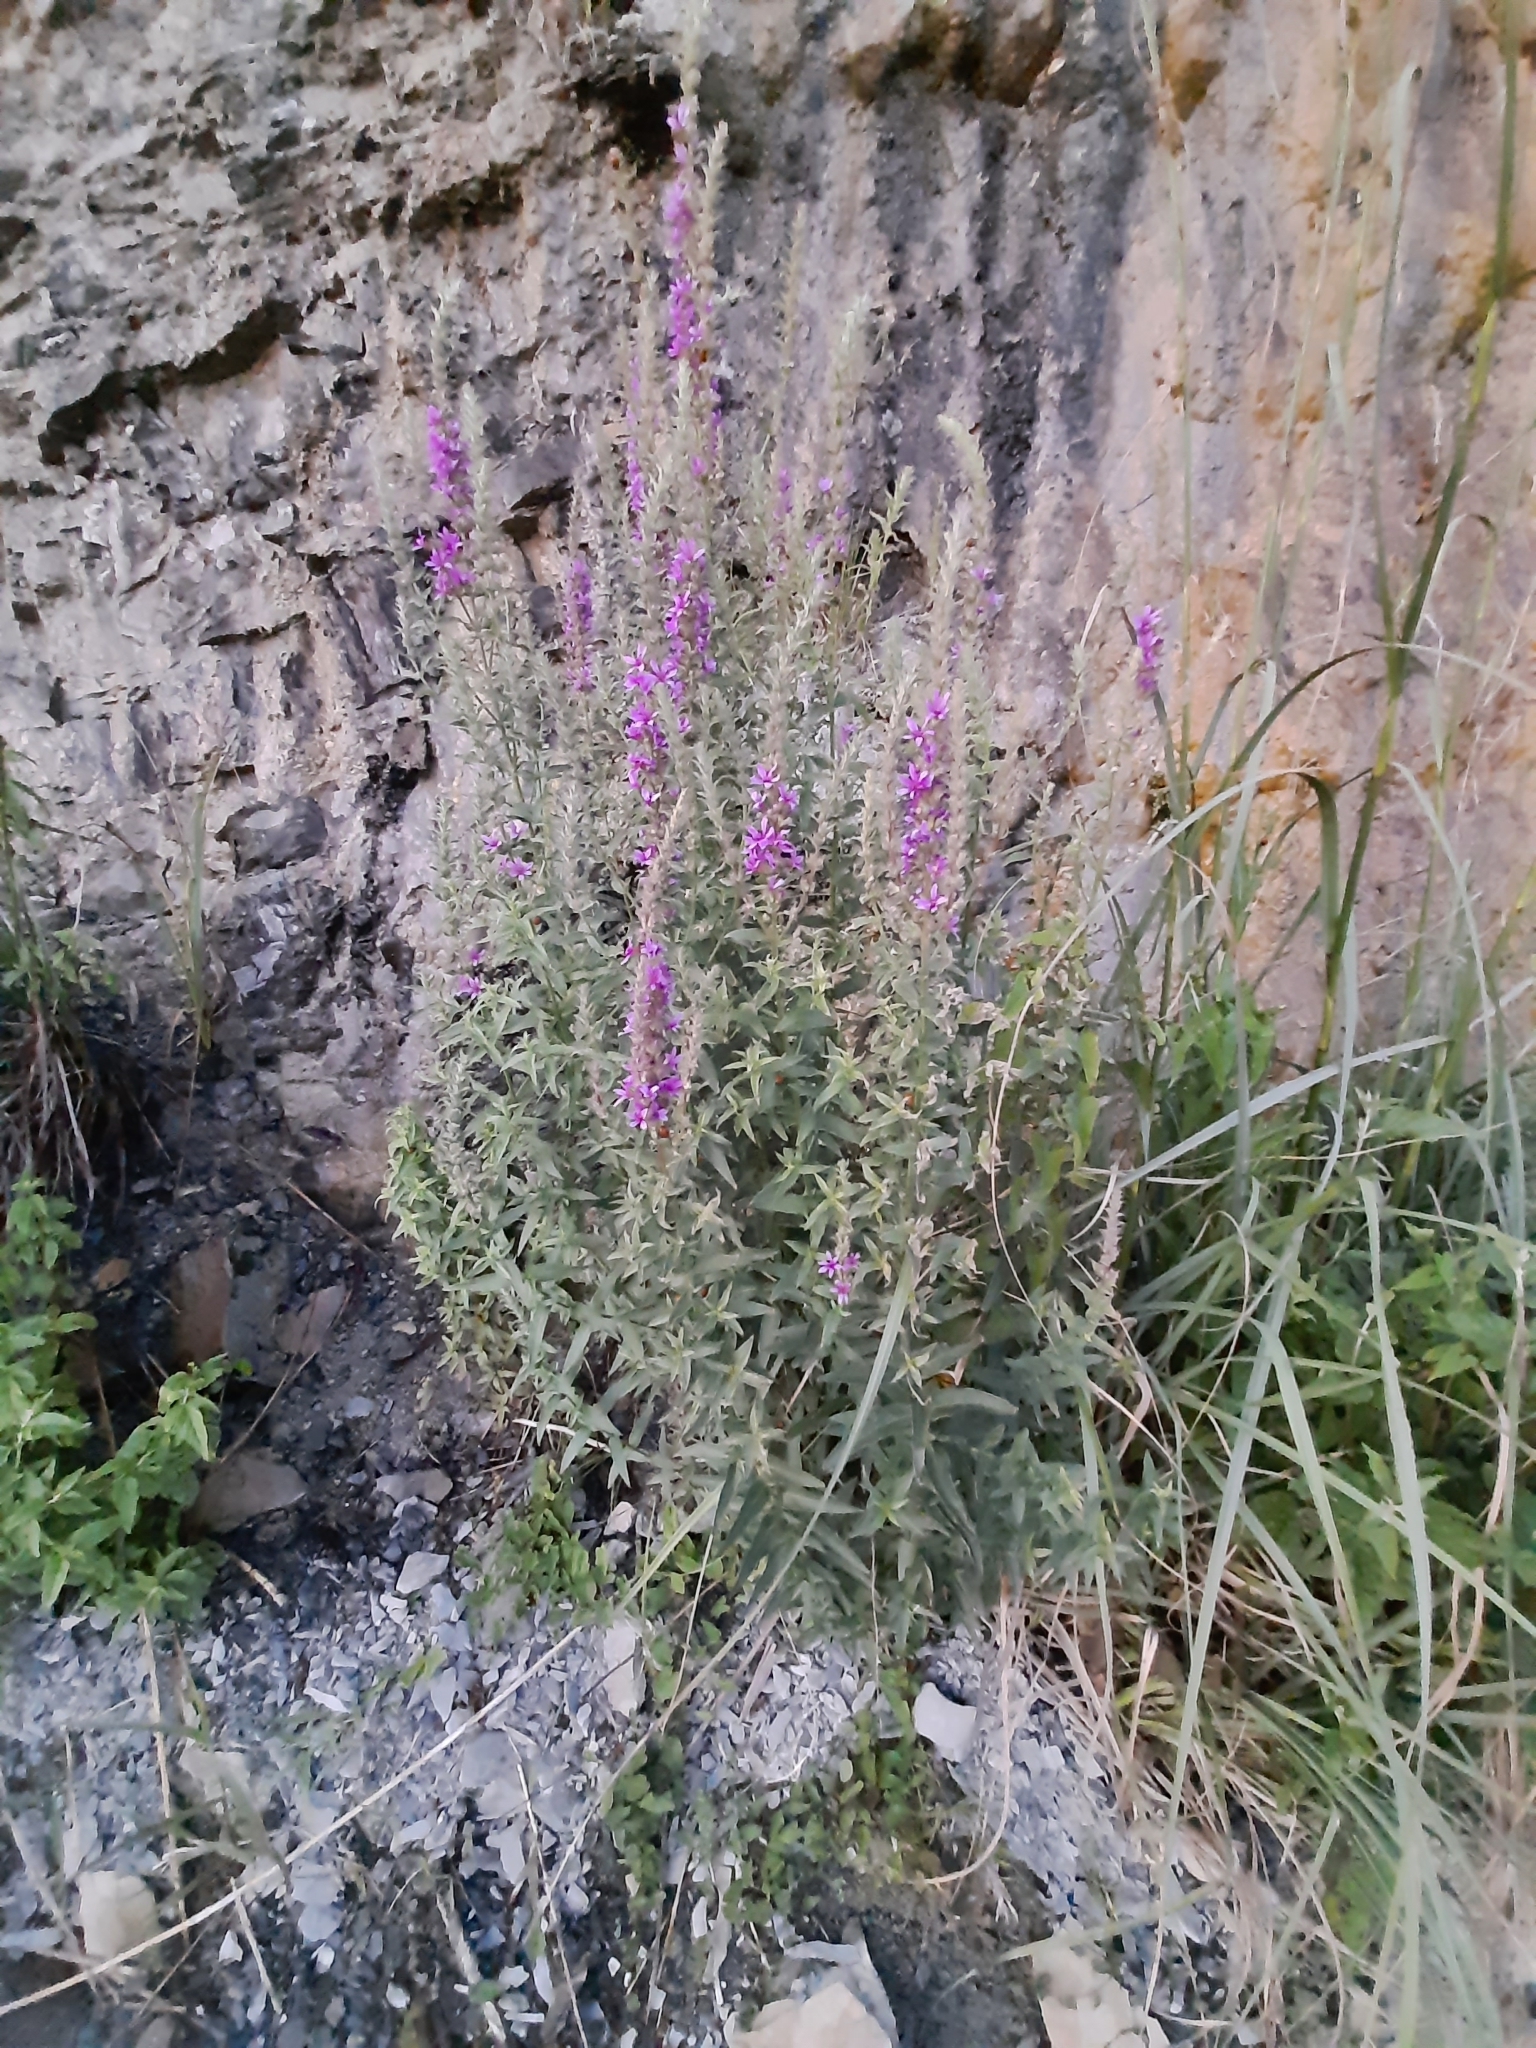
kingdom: Plantae
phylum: Tracheophyta
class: Magnoliopsida
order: Myrtales
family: Lythraceae
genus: Lythrum
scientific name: Lythrum salicaria
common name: Purple loosestrife
